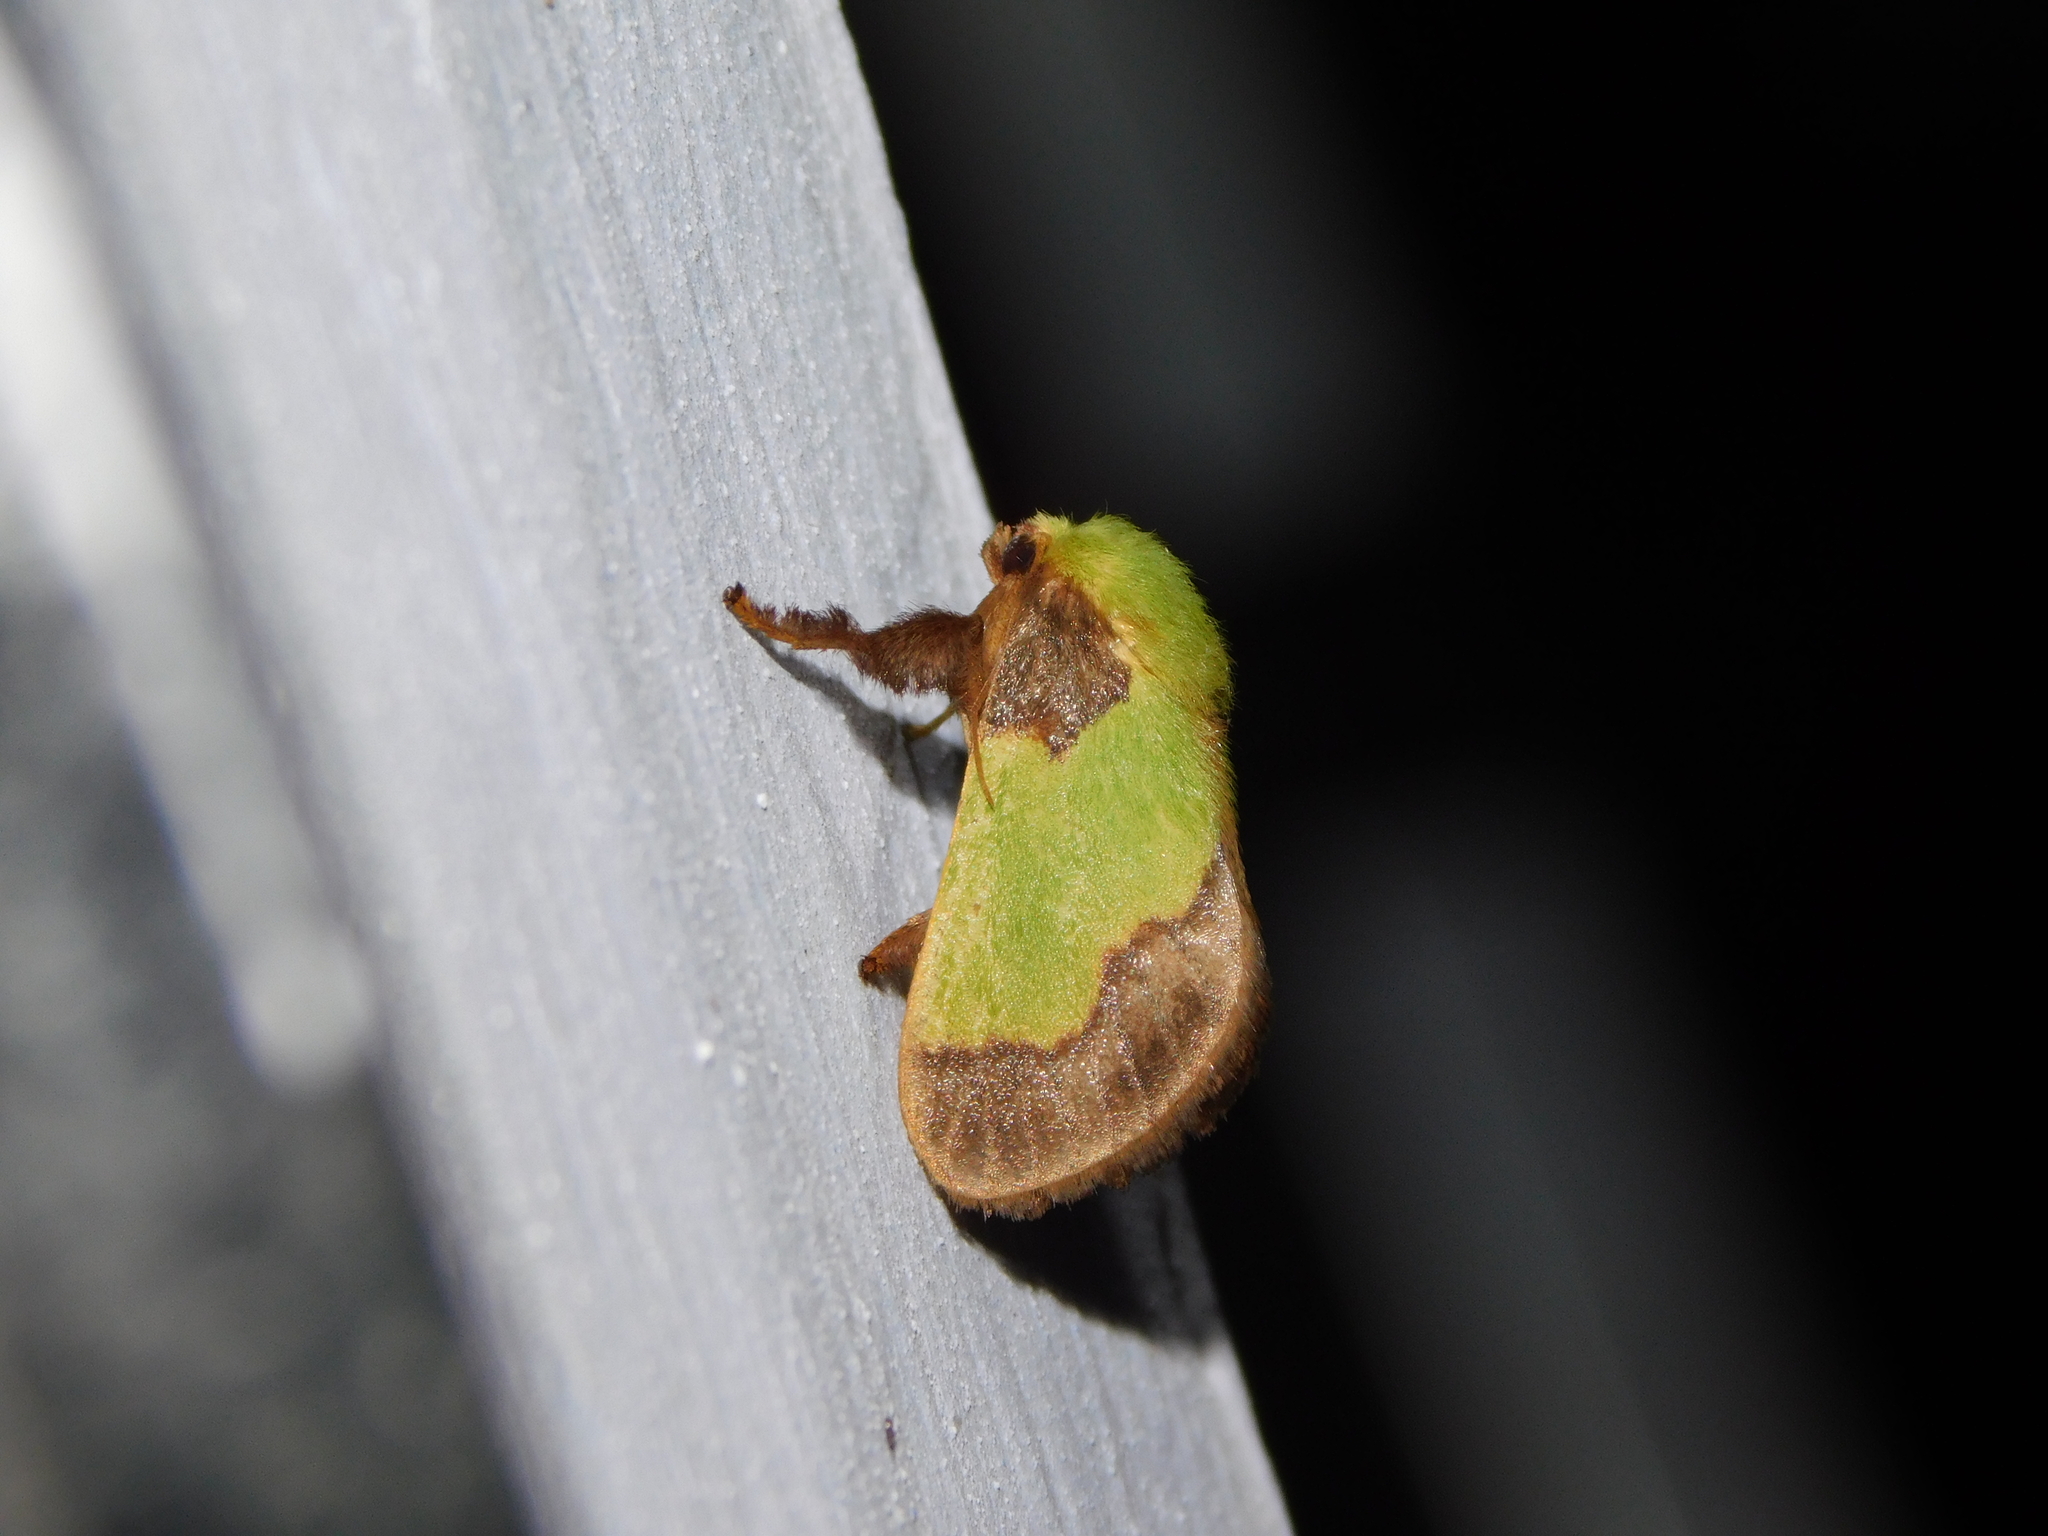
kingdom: Animalia
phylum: Arthropoda
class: Insecta
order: Lepidoptera
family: Limacodidae
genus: Aergina
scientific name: Aergina hilaris
